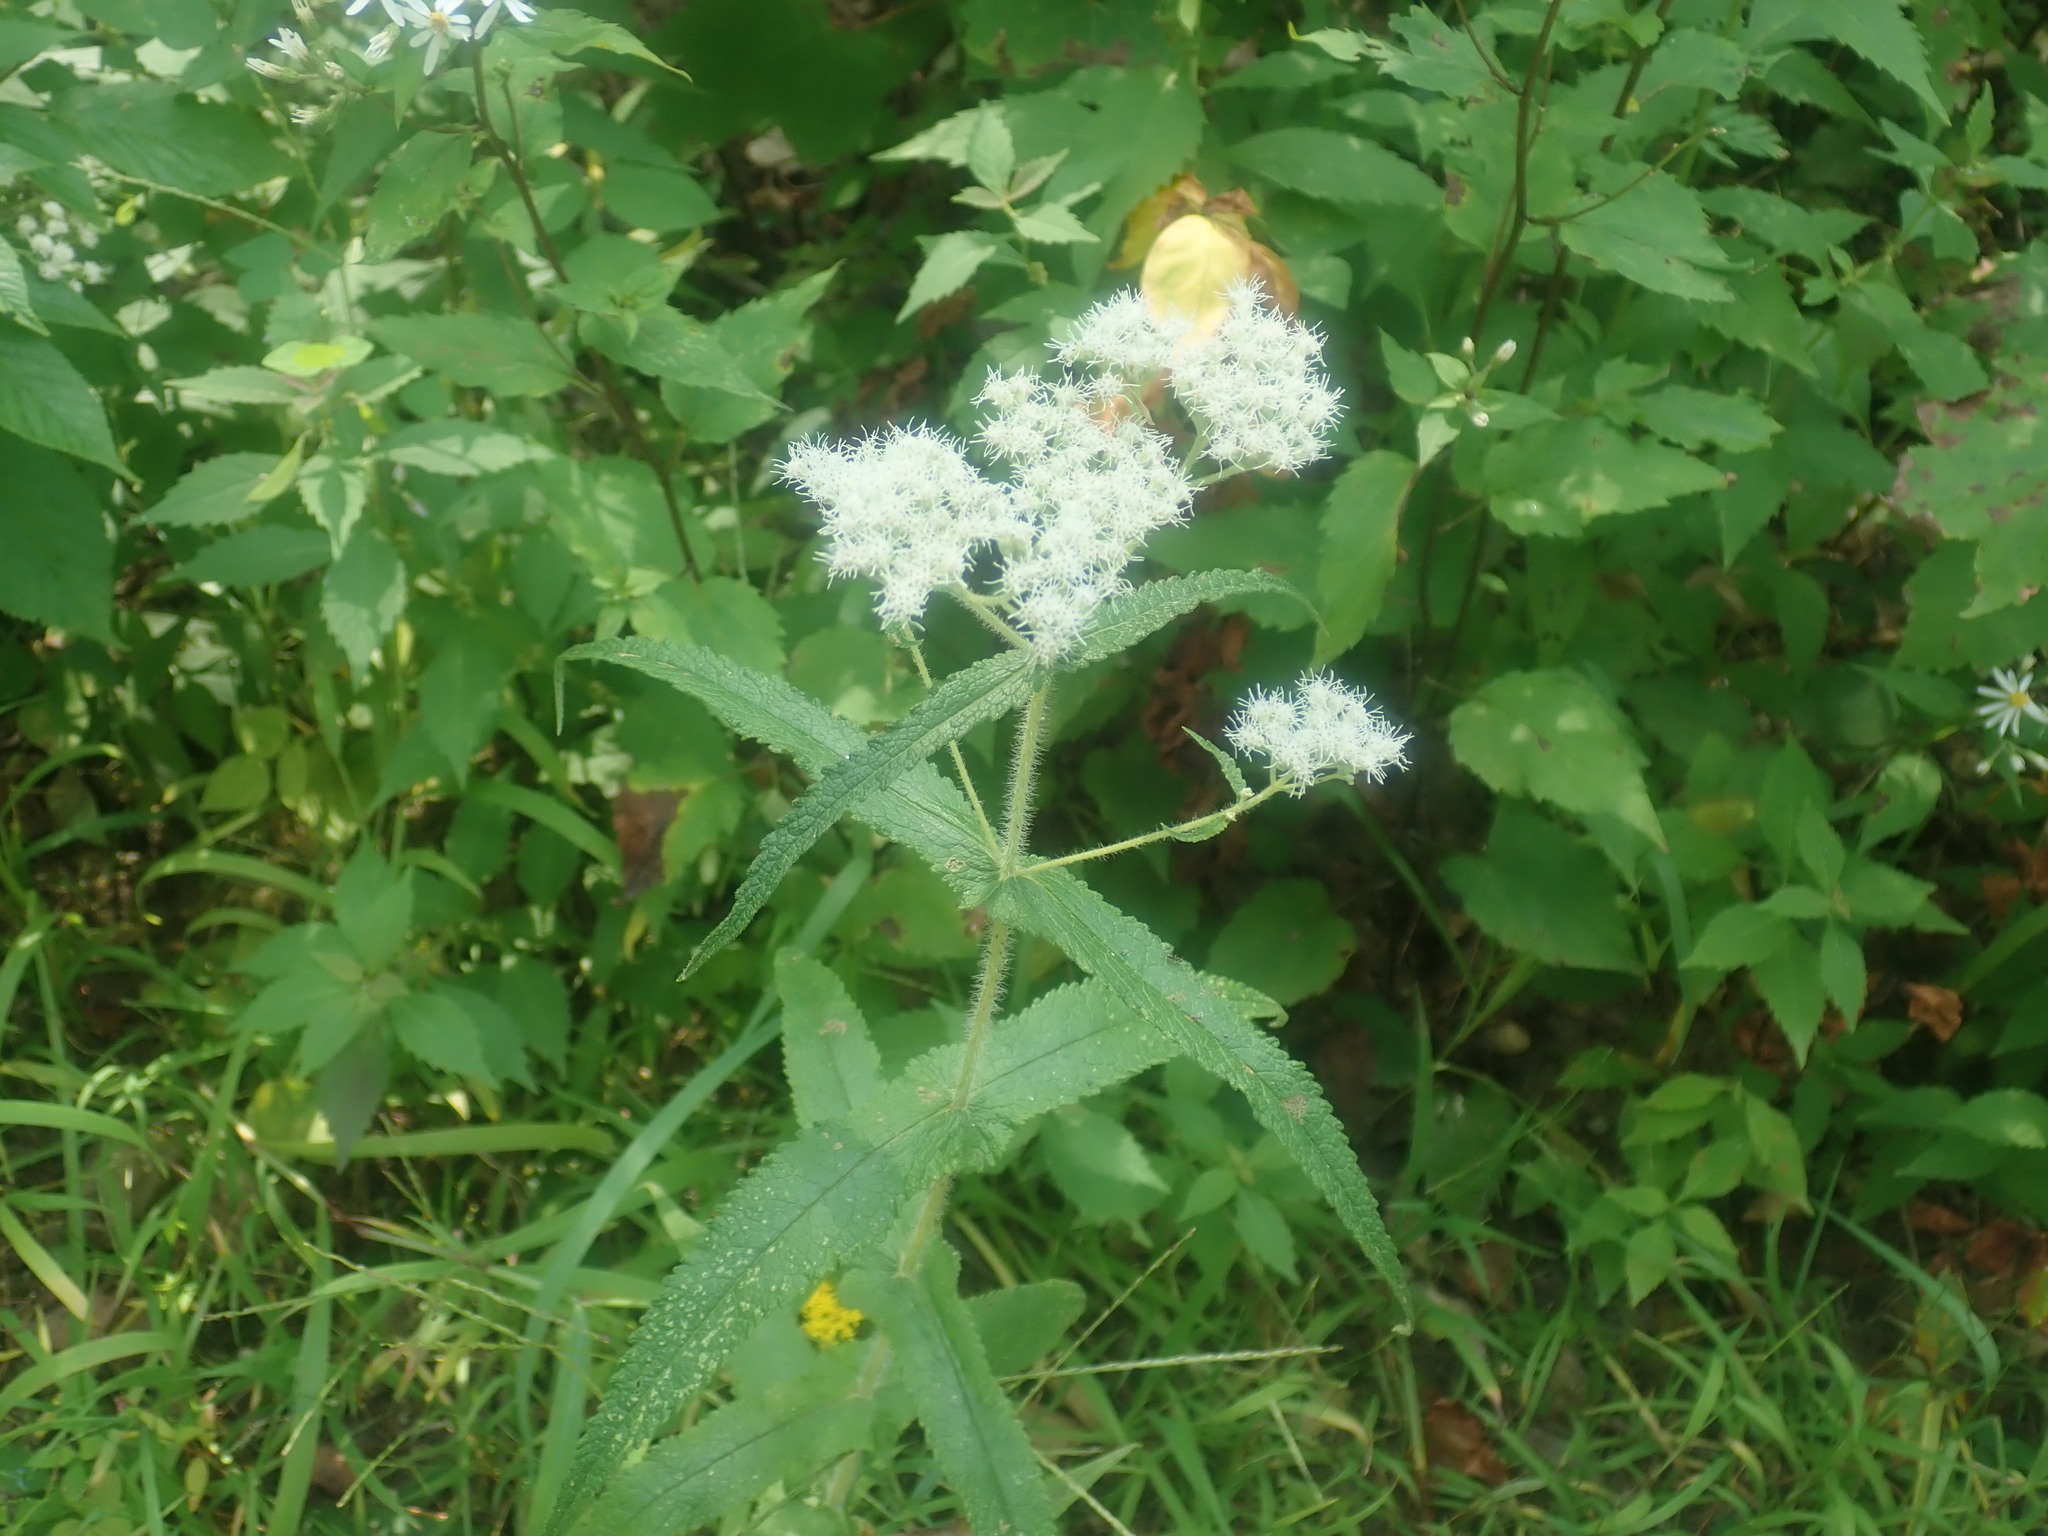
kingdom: Plantae
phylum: Tracheophyta
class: Magnoliopsida
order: Asterales
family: Asteraceae
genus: Eupatorium
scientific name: Eupatorium perfoliatum
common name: Boneset
